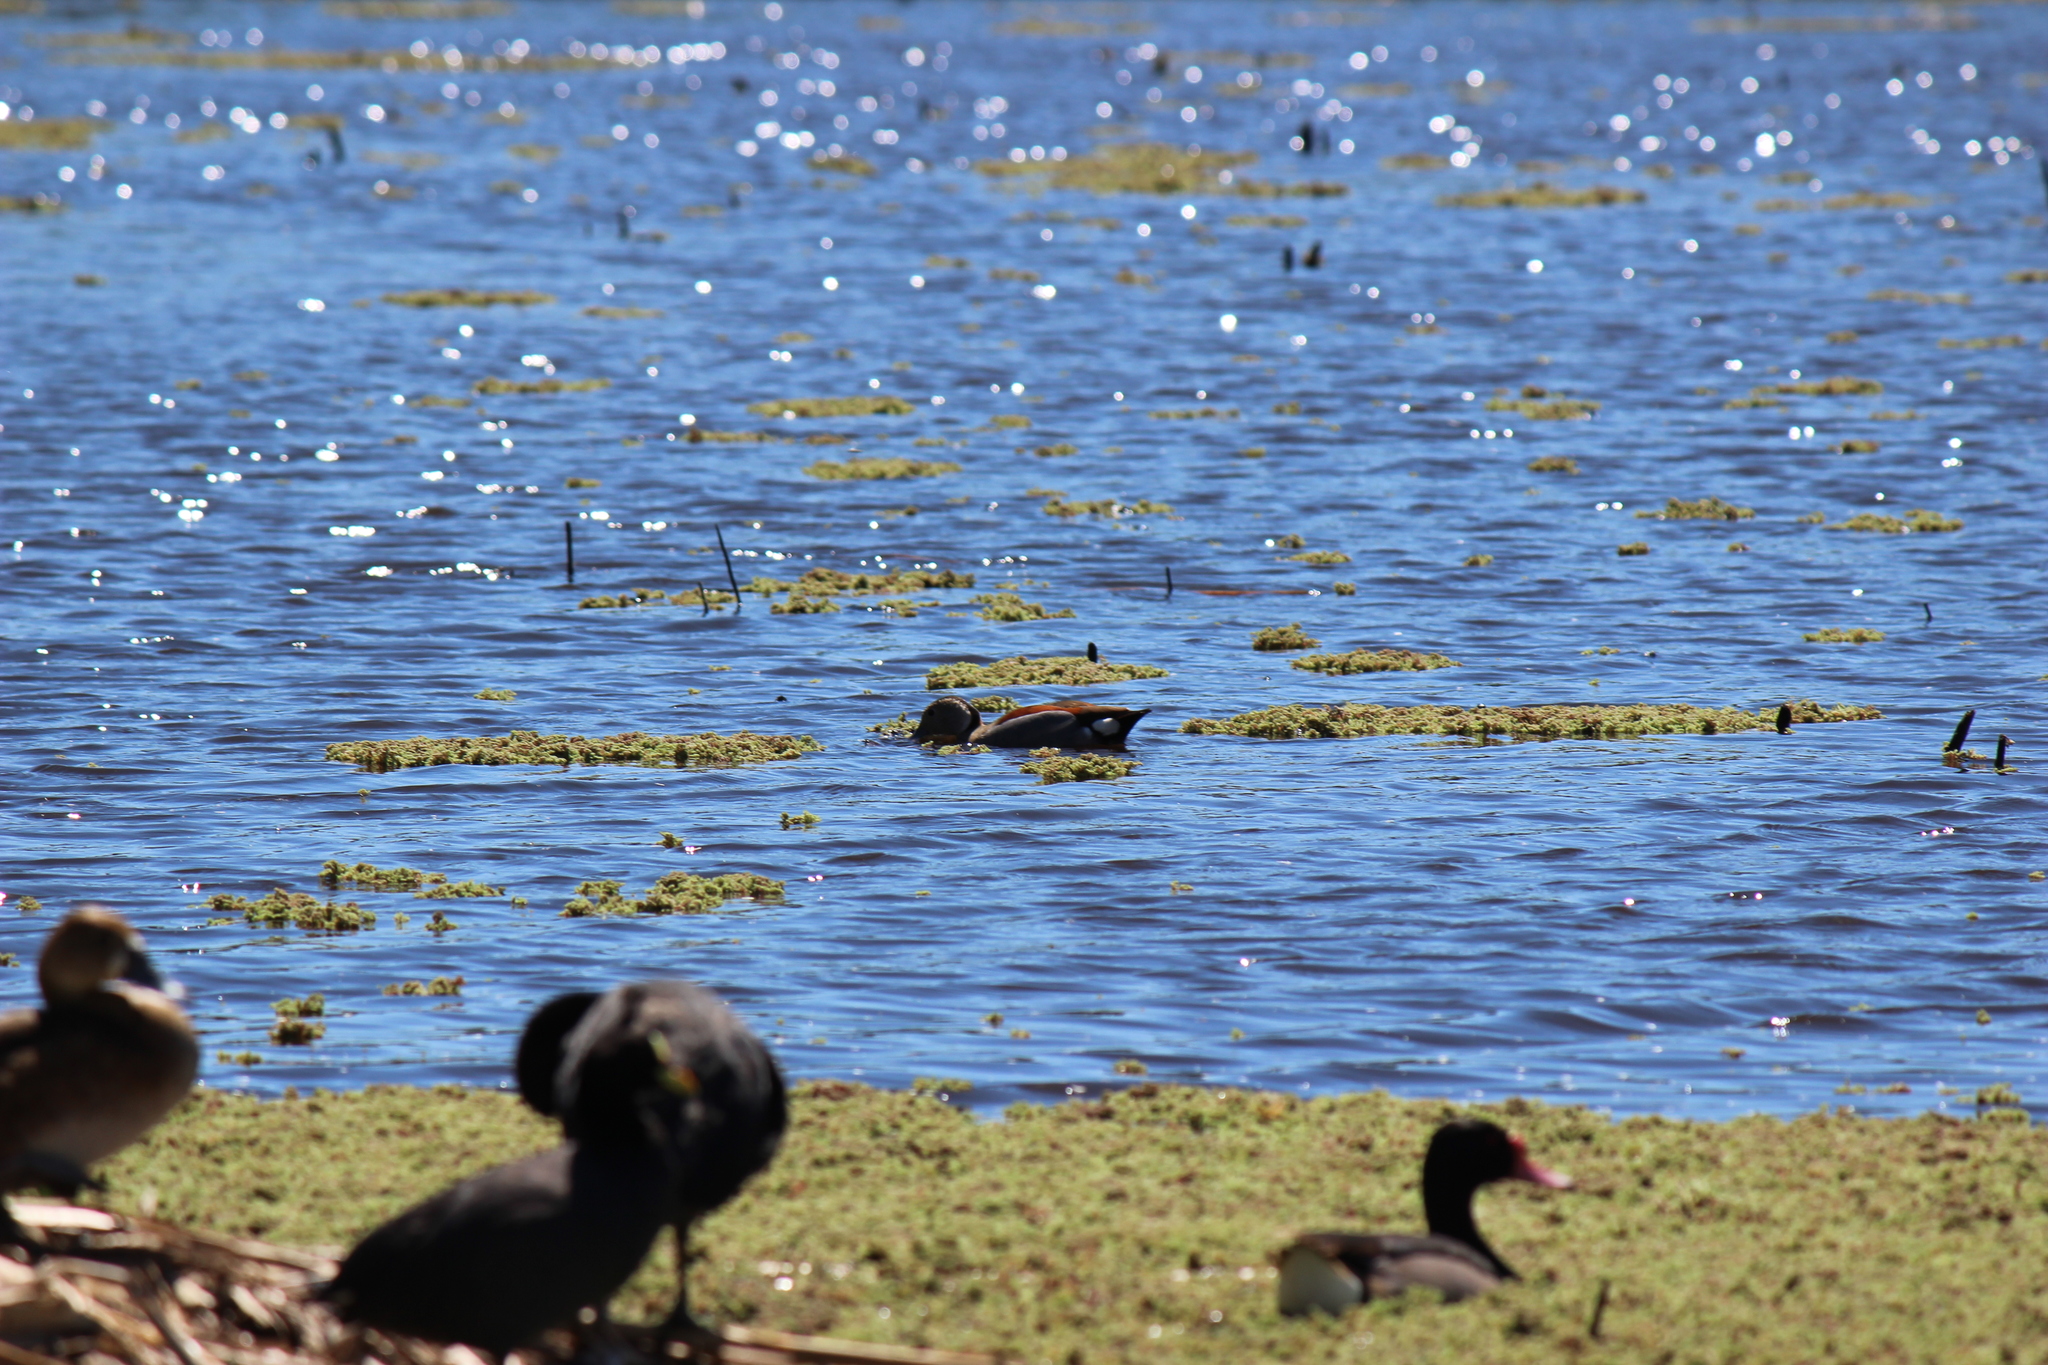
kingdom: Animalia
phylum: Chordata
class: Aves
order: Anseriformes
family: Anatidae
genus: Callonetta
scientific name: Callonetta leucophrys
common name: Ringed teal
